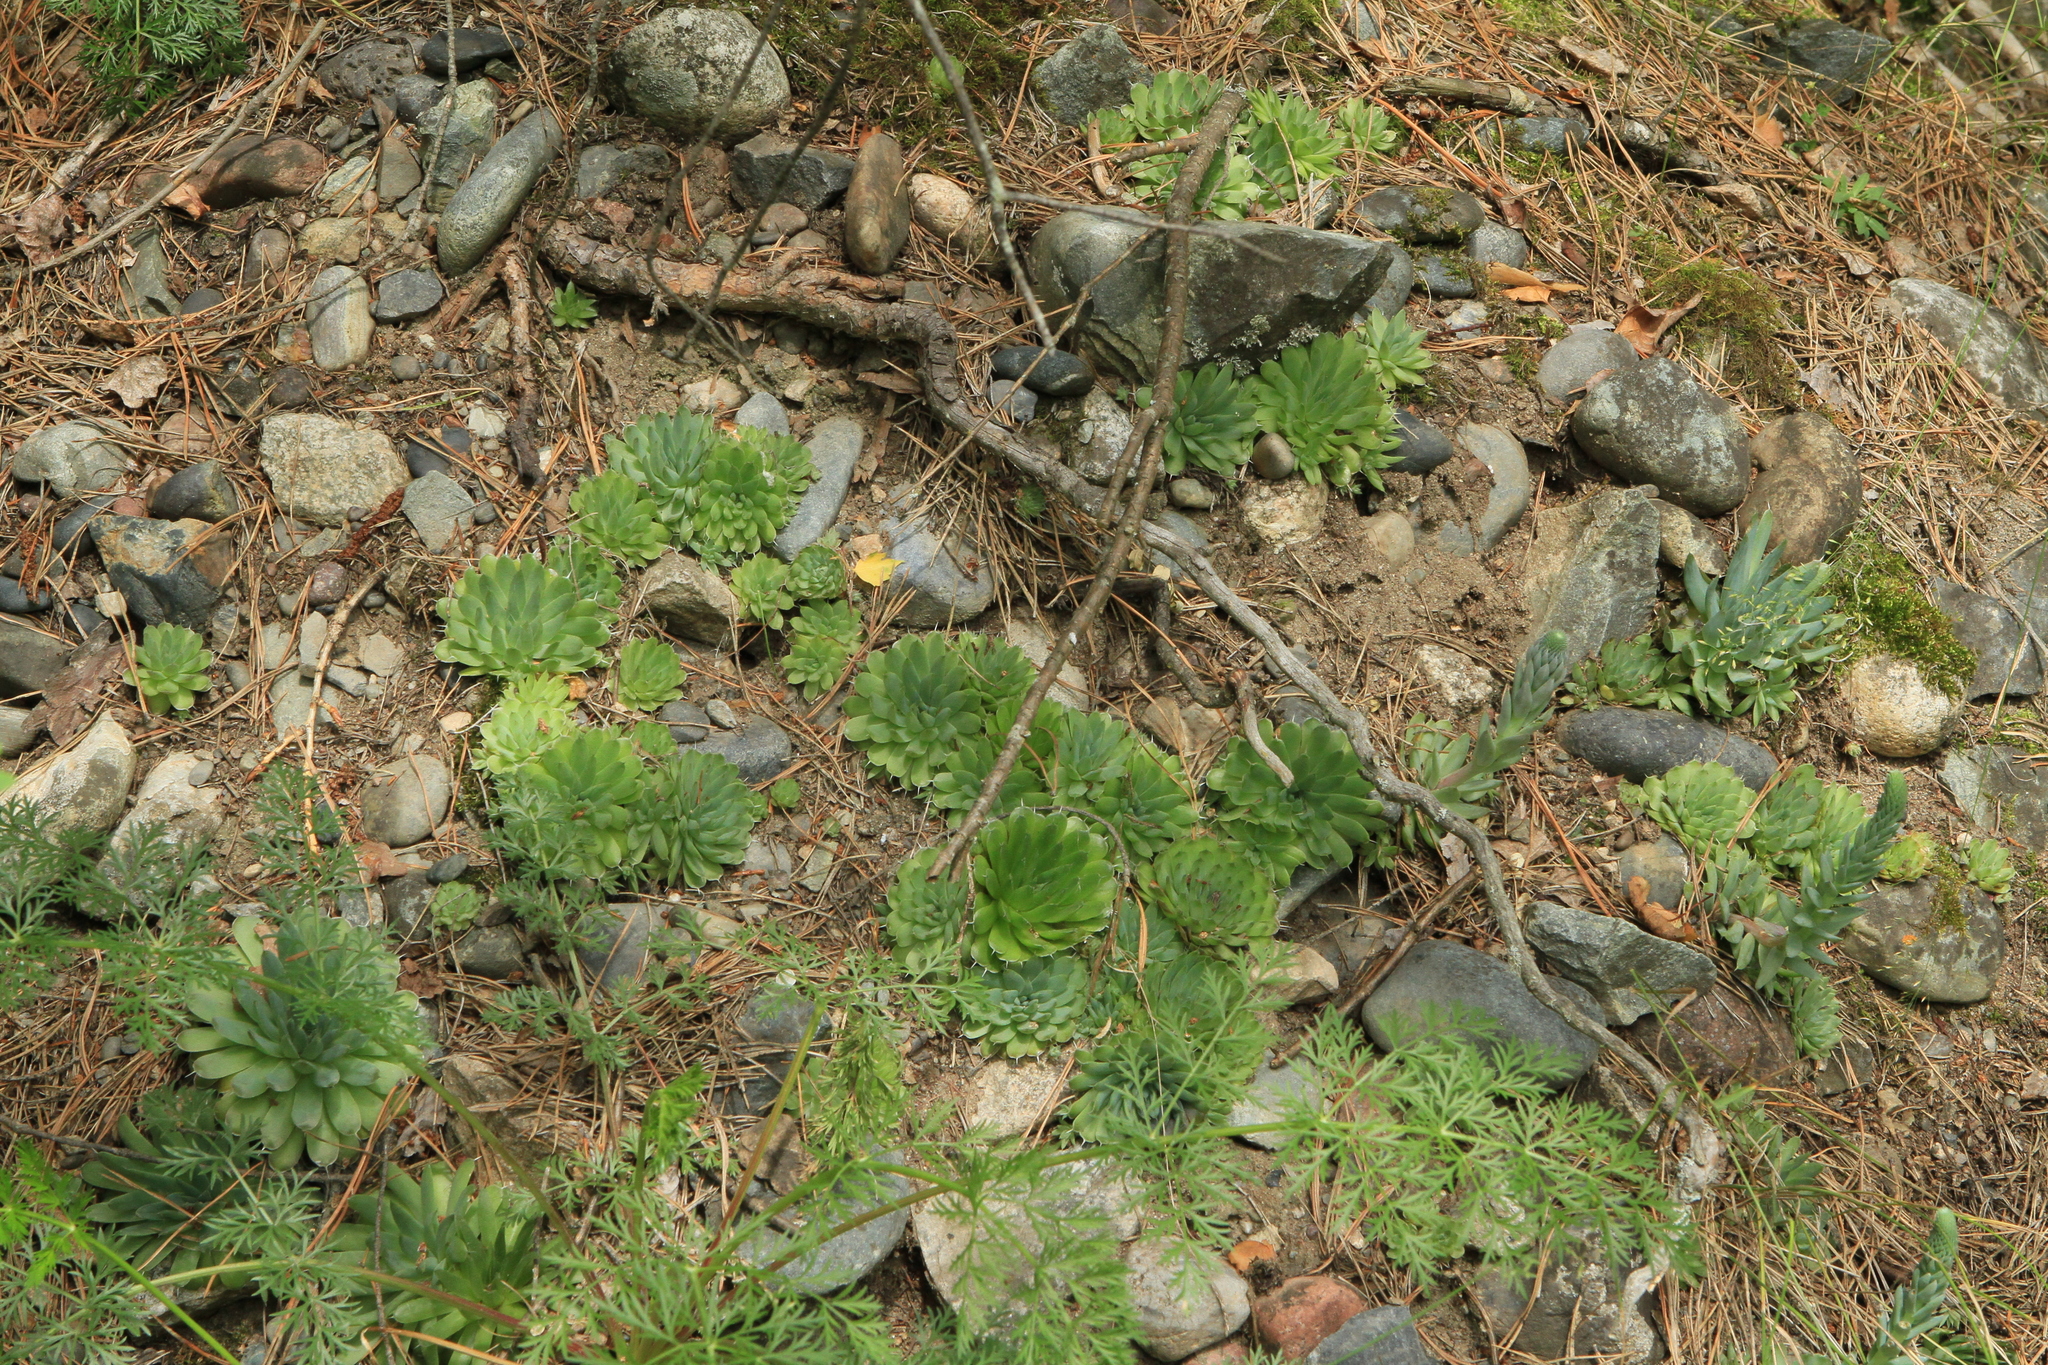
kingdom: Plantae
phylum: Tracheophyta
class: Magnoliopsida
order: Saxifragales
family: Crassulaceae
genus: Orostachys
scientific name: Orostachys spinosa
